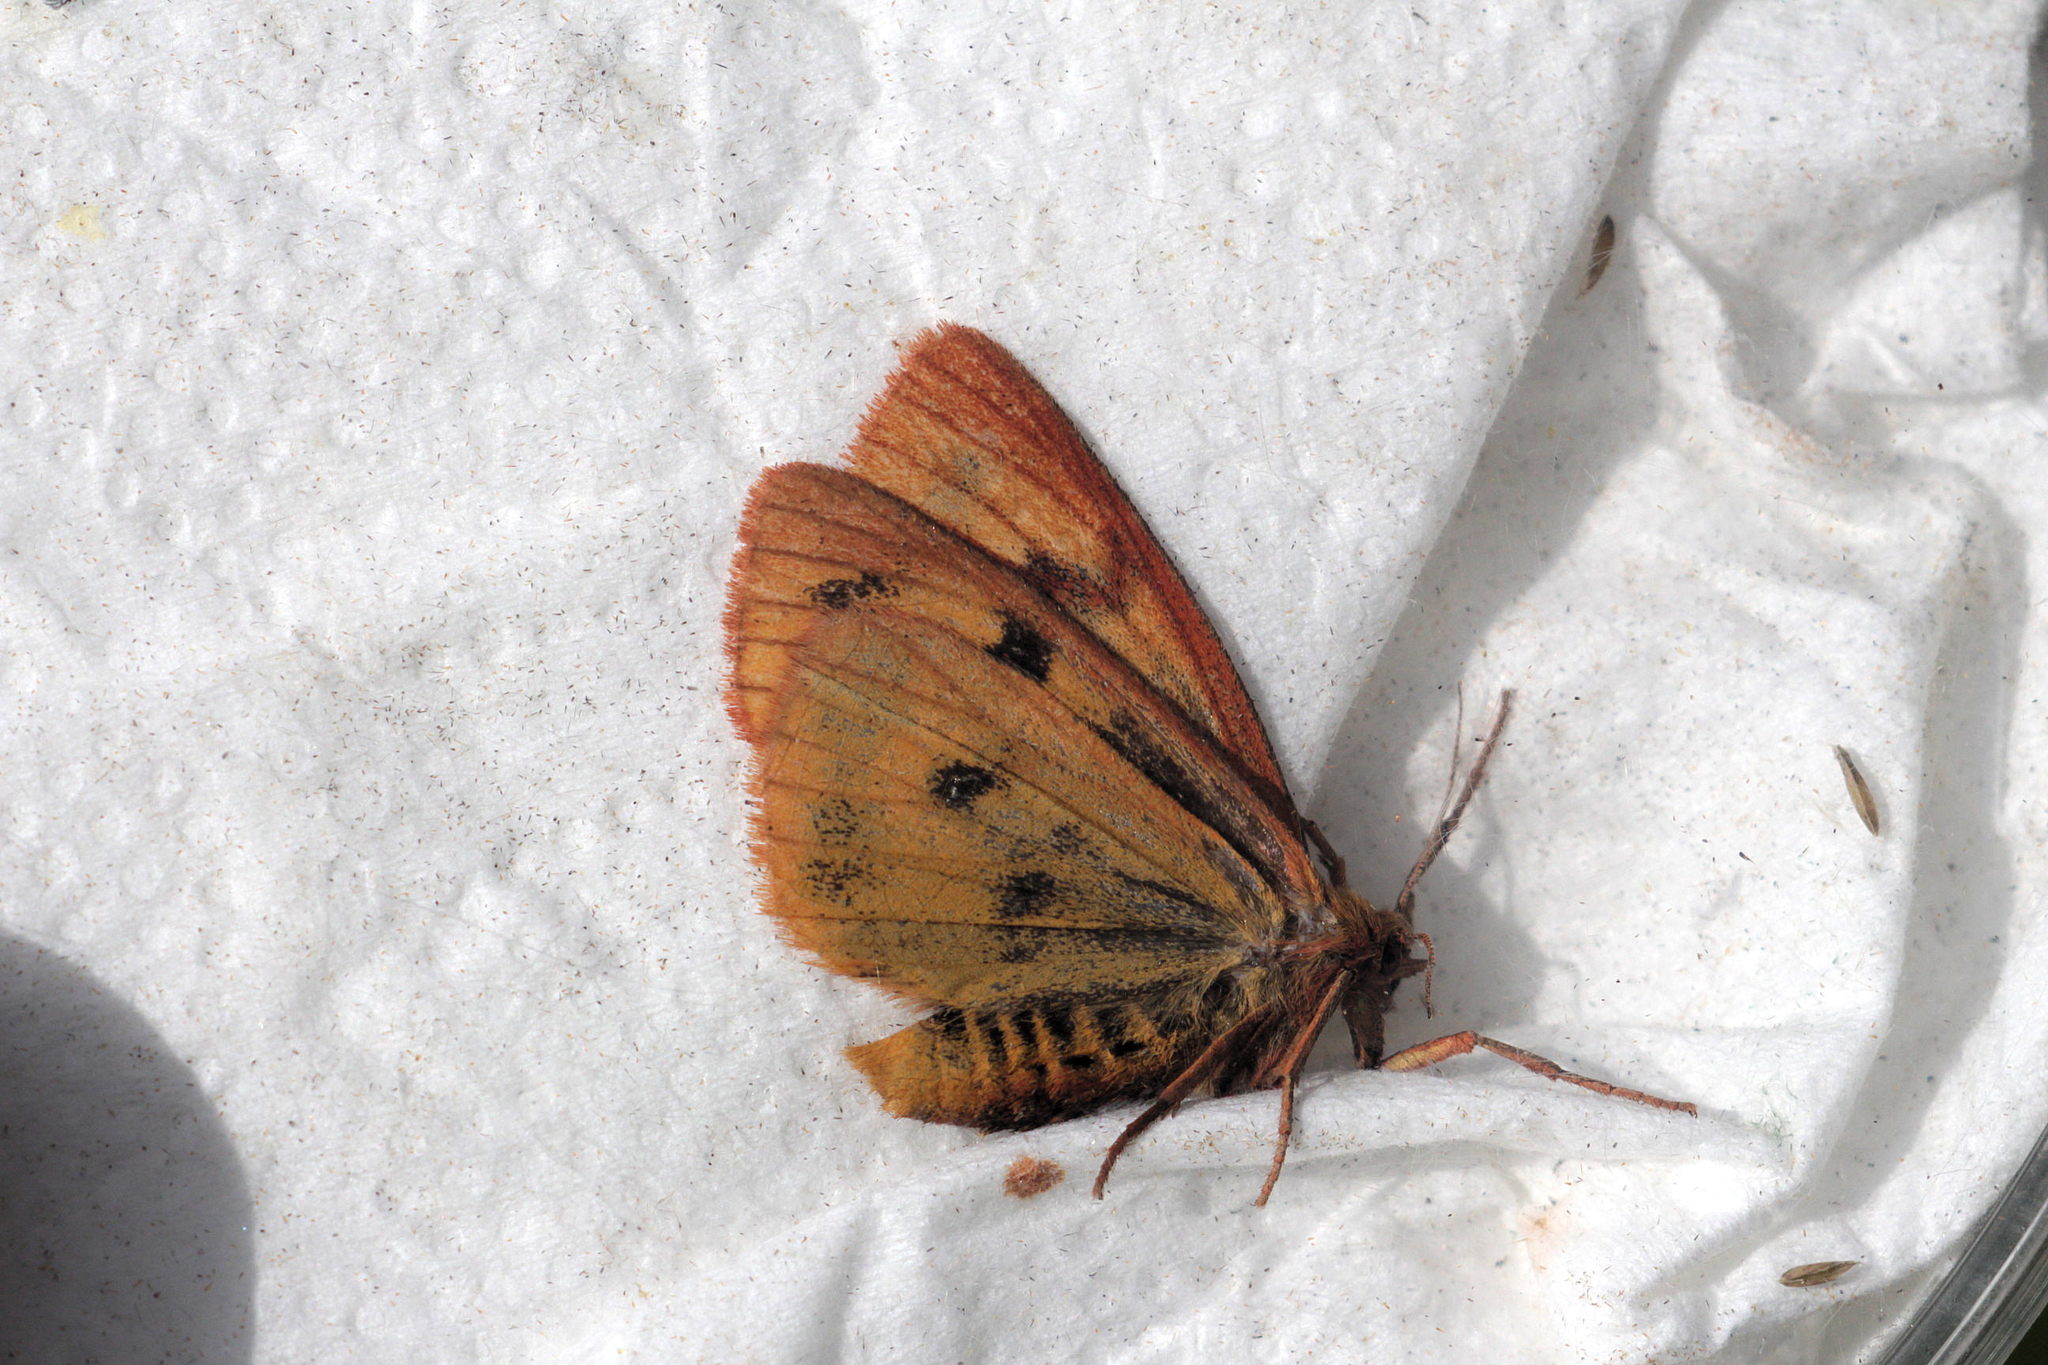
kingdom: Animalia
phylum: Arthropoda
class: Insecta
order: Lepidoptera
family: Erebidae
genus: Diacrisia
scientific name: Diacrisia sannio
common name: Clouded buff
